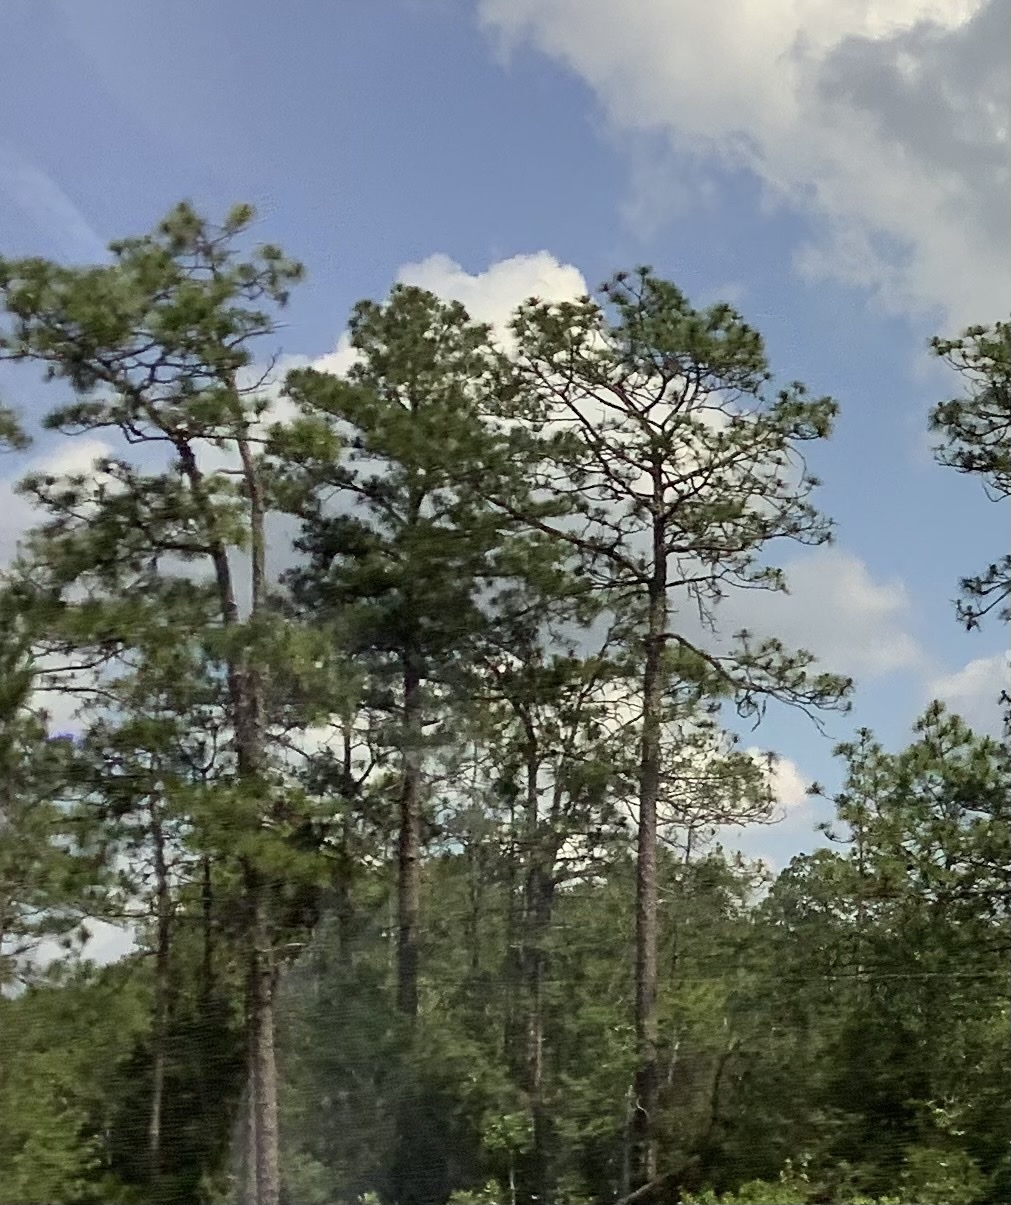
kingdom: Plantae
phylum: Tracheophyta
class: Pinopsida
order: Pinales
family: Pinaceae
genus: Pinus
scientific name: Pinus palustris
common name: Longleaf pine
